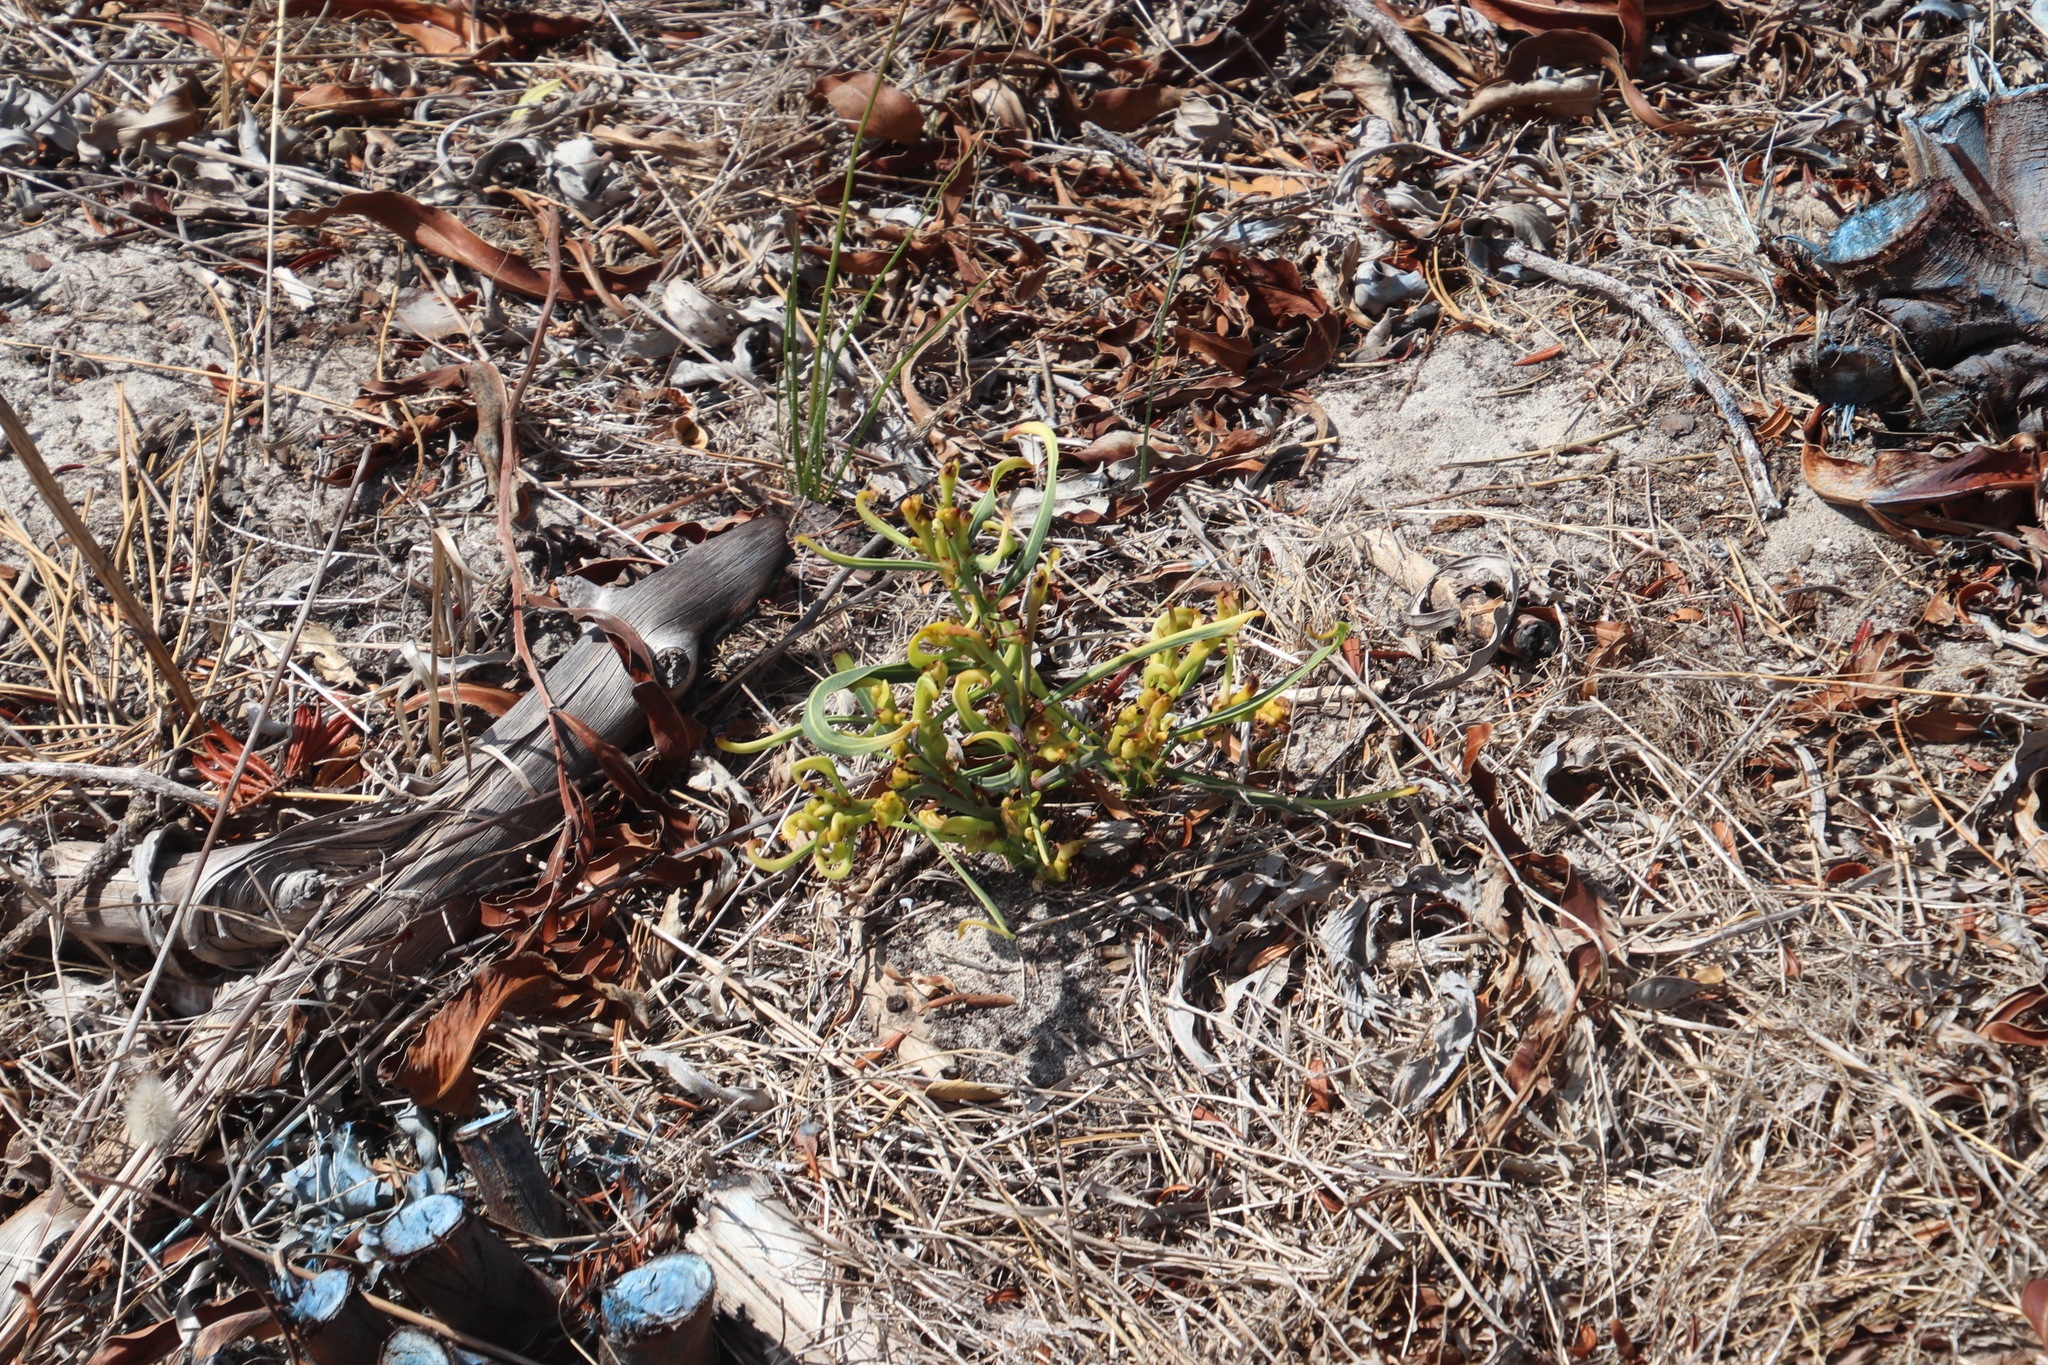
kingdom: Plantae
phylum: Tracheophyta
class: Magnoliopsida
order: Fabales
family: Fabaceae
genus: Acacia
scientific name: Acacia saligna
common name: Orange wattle
